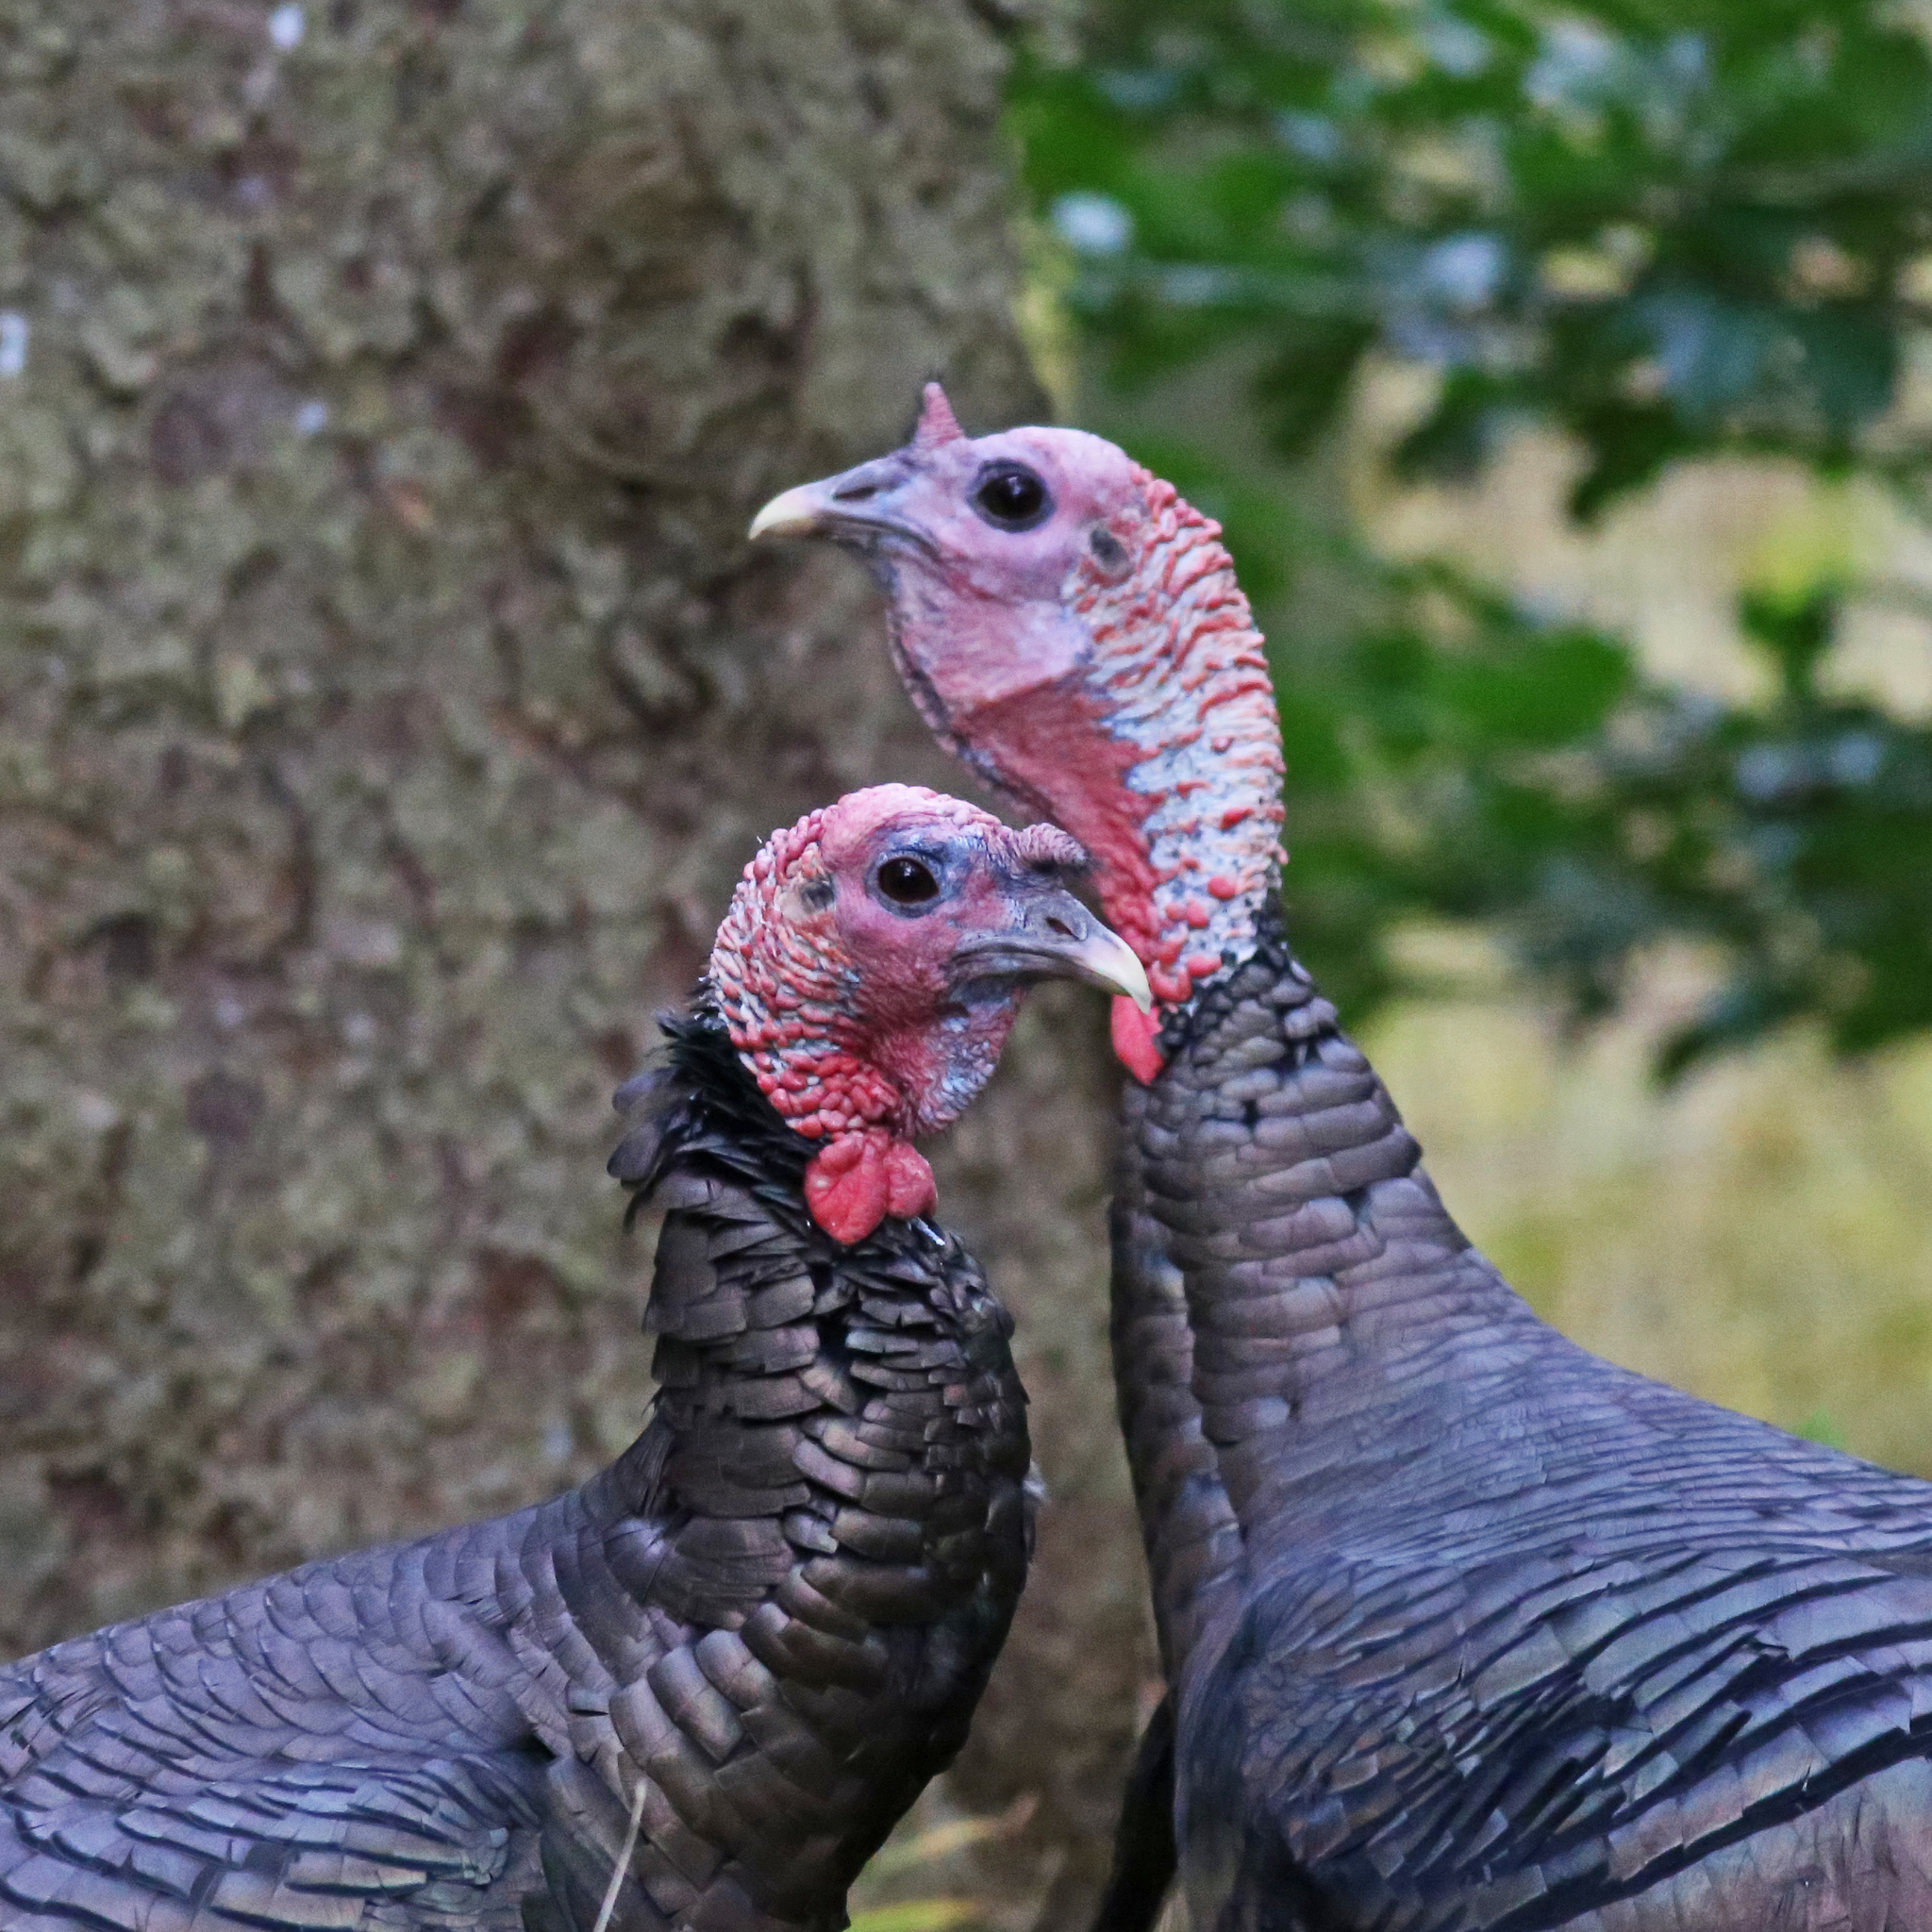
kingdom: Animalia
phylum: Chordata
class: Aves
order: Galliformes
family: Phasianidae
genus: Meleagris
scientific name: Meleagris gallopavo
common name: Wild turkey
